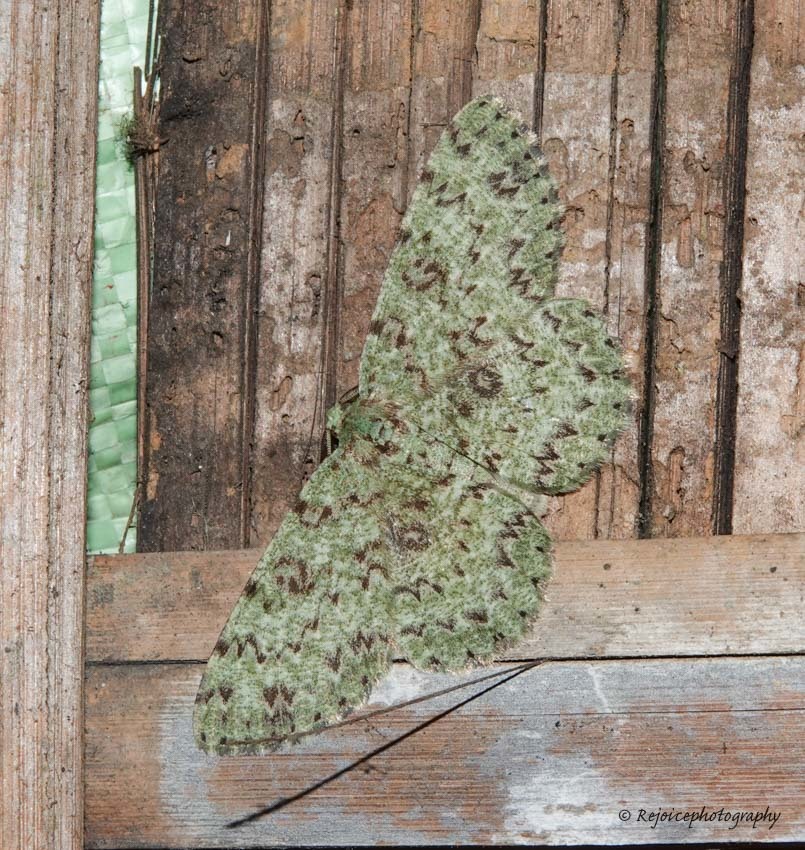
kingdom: Animalia
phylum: Arthropoda
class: Insecta
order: Lepidoptera
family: Geometridae
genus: Ophthalmitis
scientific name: Ophthalmitis herbidaria
